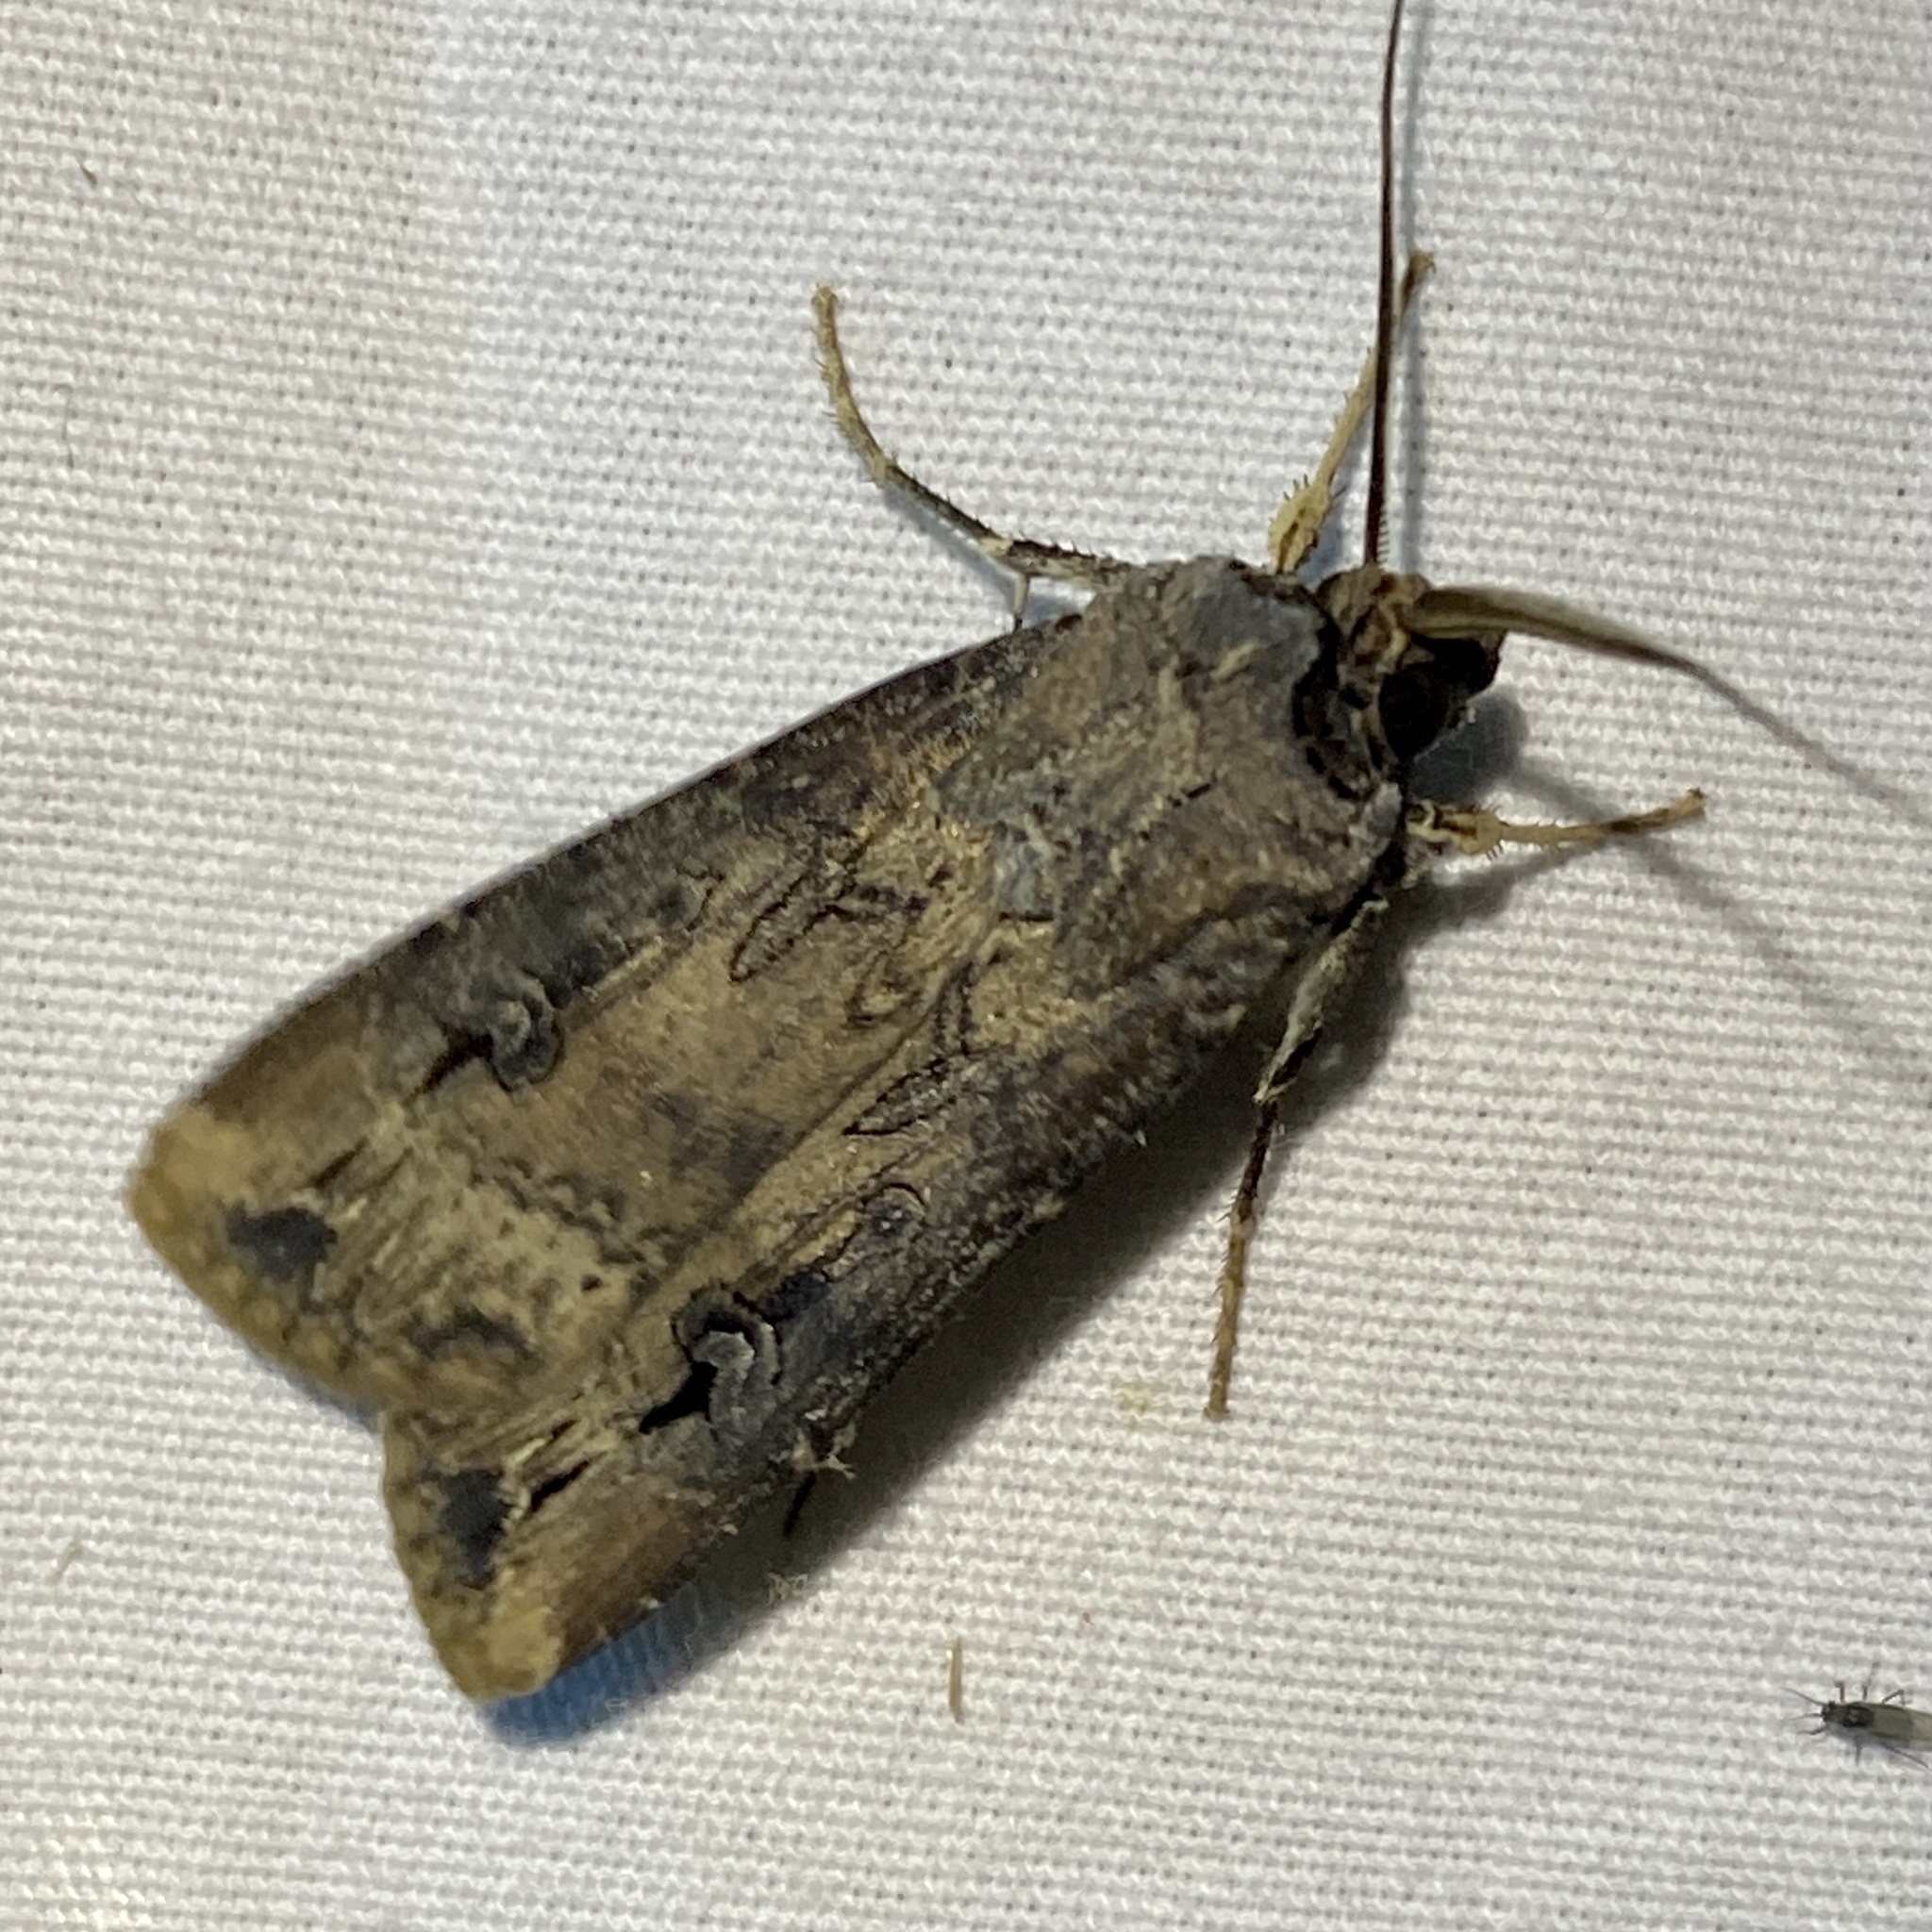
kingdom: Animalia
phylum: Arthropoda
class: Insecta
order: Lepidoptera
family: Noctuidae
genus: Agrotis
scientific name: Agrotis ipsilon
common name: Dark sword-grass
